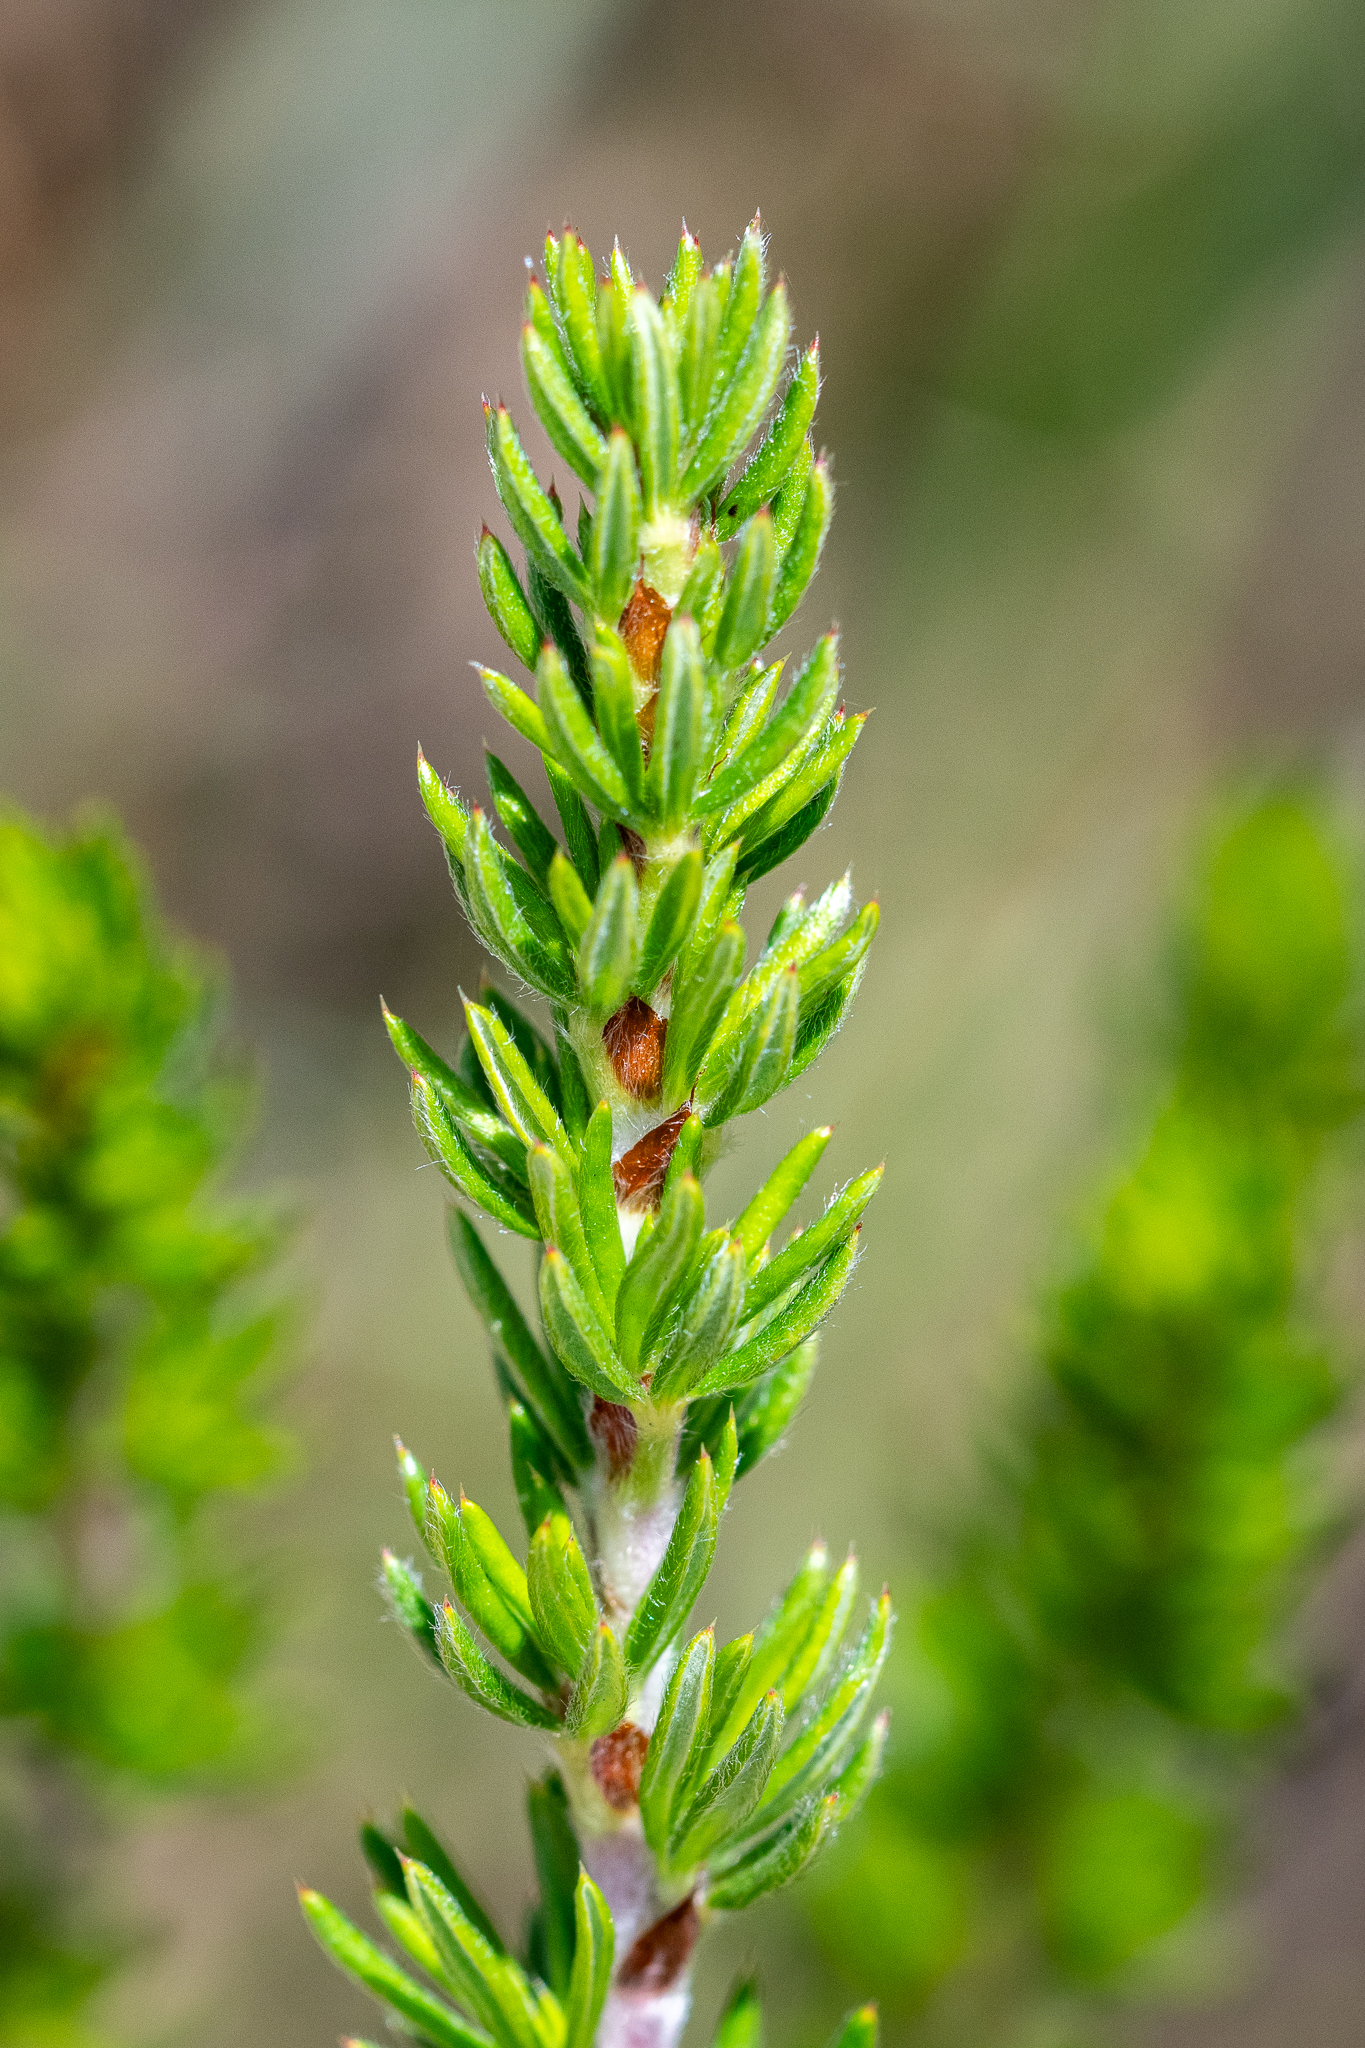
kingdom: Plantae
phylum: Tracheophyta
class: Magnoliopsida
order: Rosales
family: Rosaceae
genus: Cliffortia
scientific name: Cliffortia stricta
